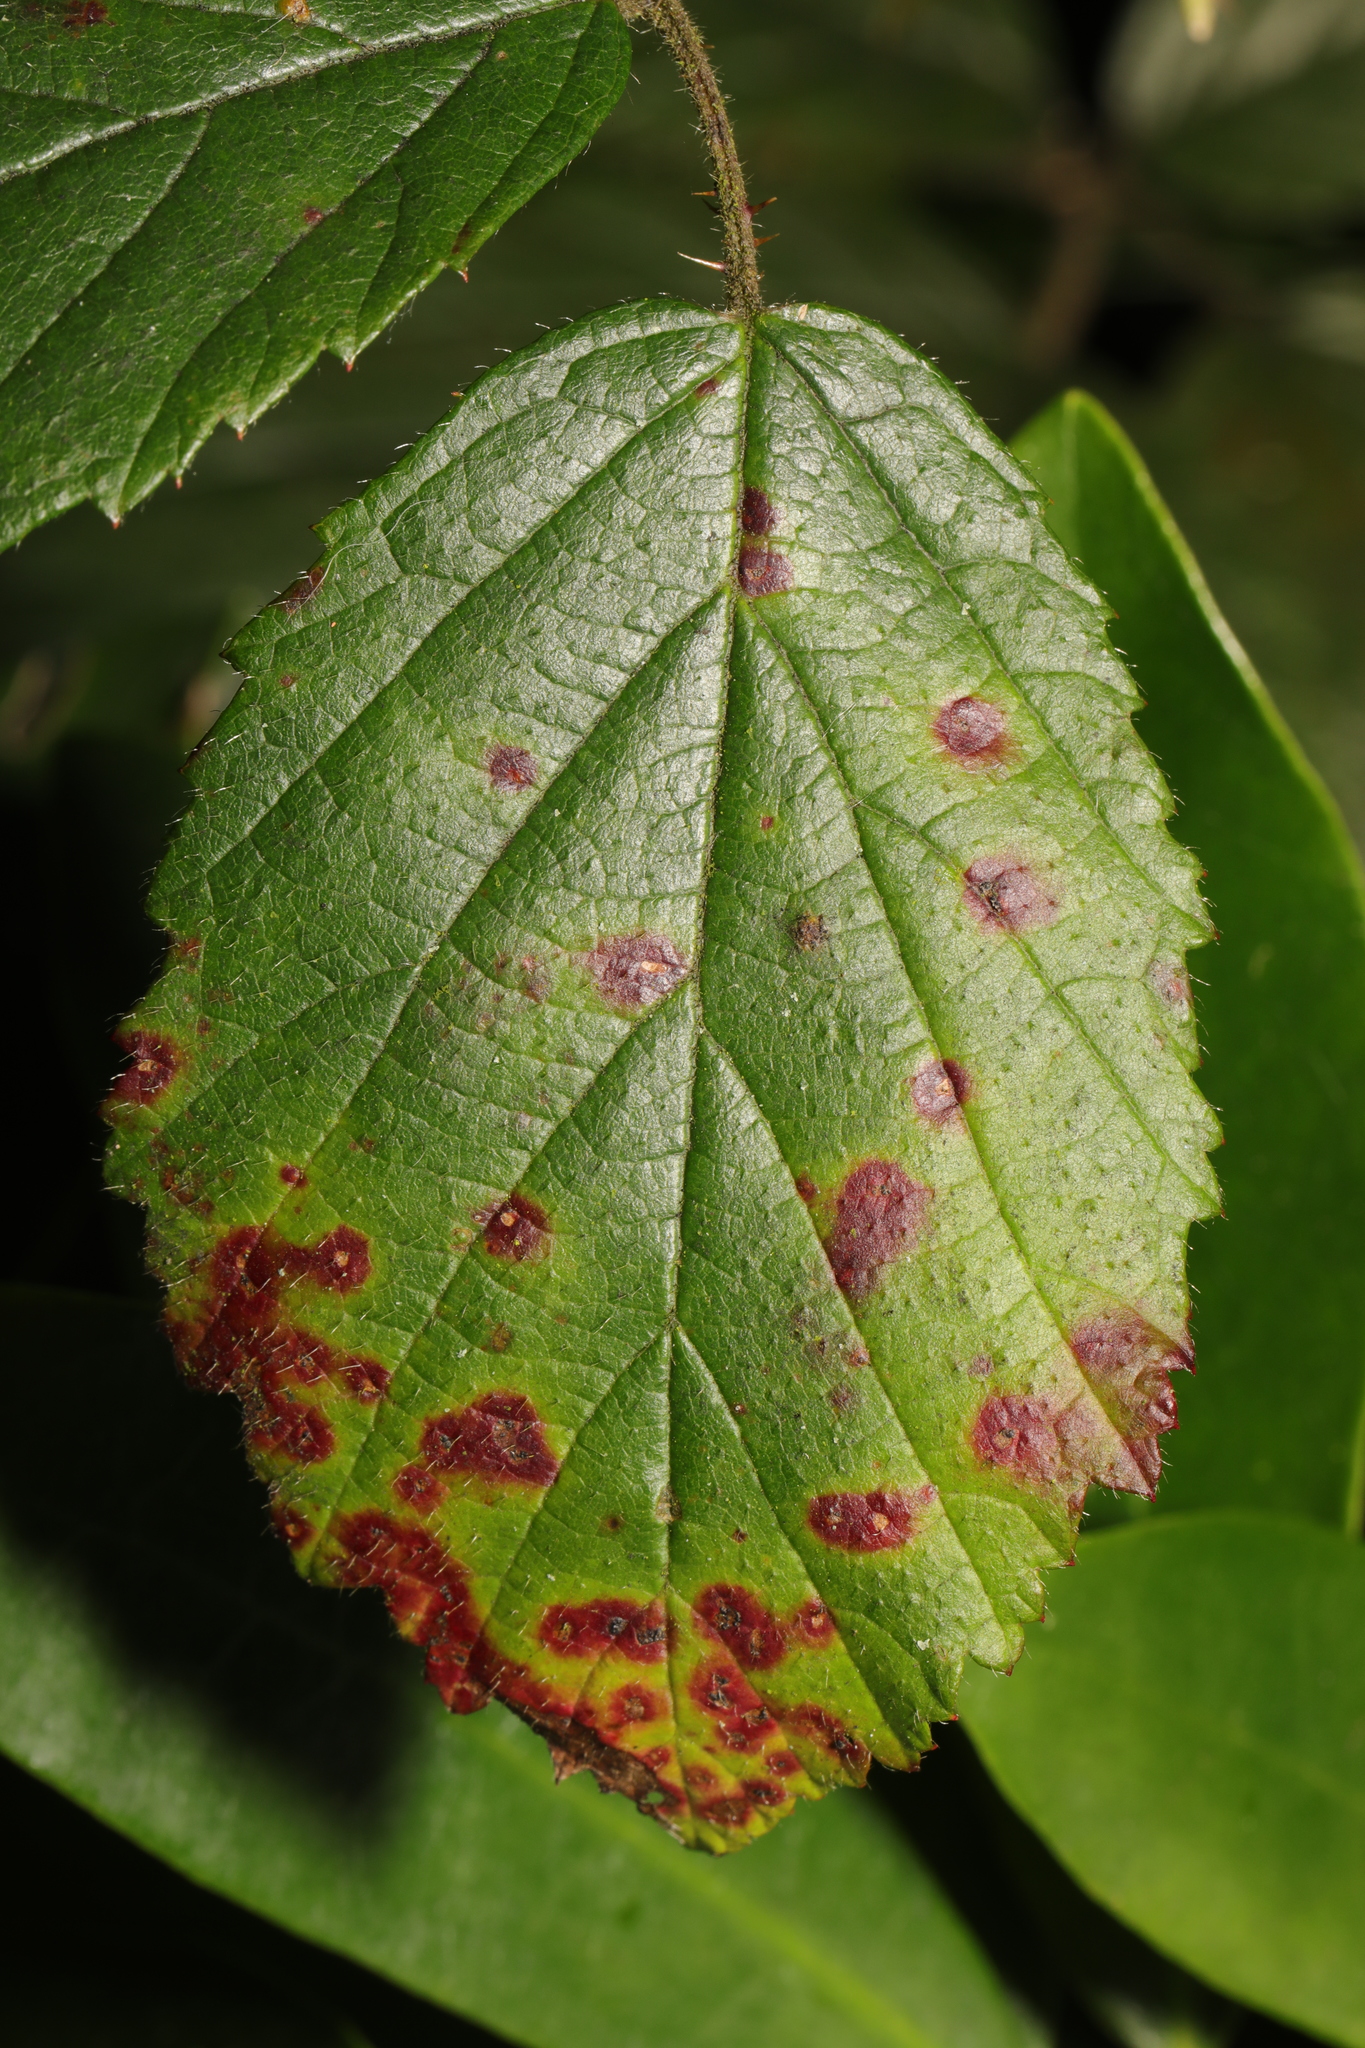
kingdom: Fungi
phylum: Basidiomycota
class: Pucciniomycetes
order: Pucciniales
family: Phragmidiaceae
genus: Phragmidium
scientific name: Phragmidium violaceum
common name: Violet bramble rust
